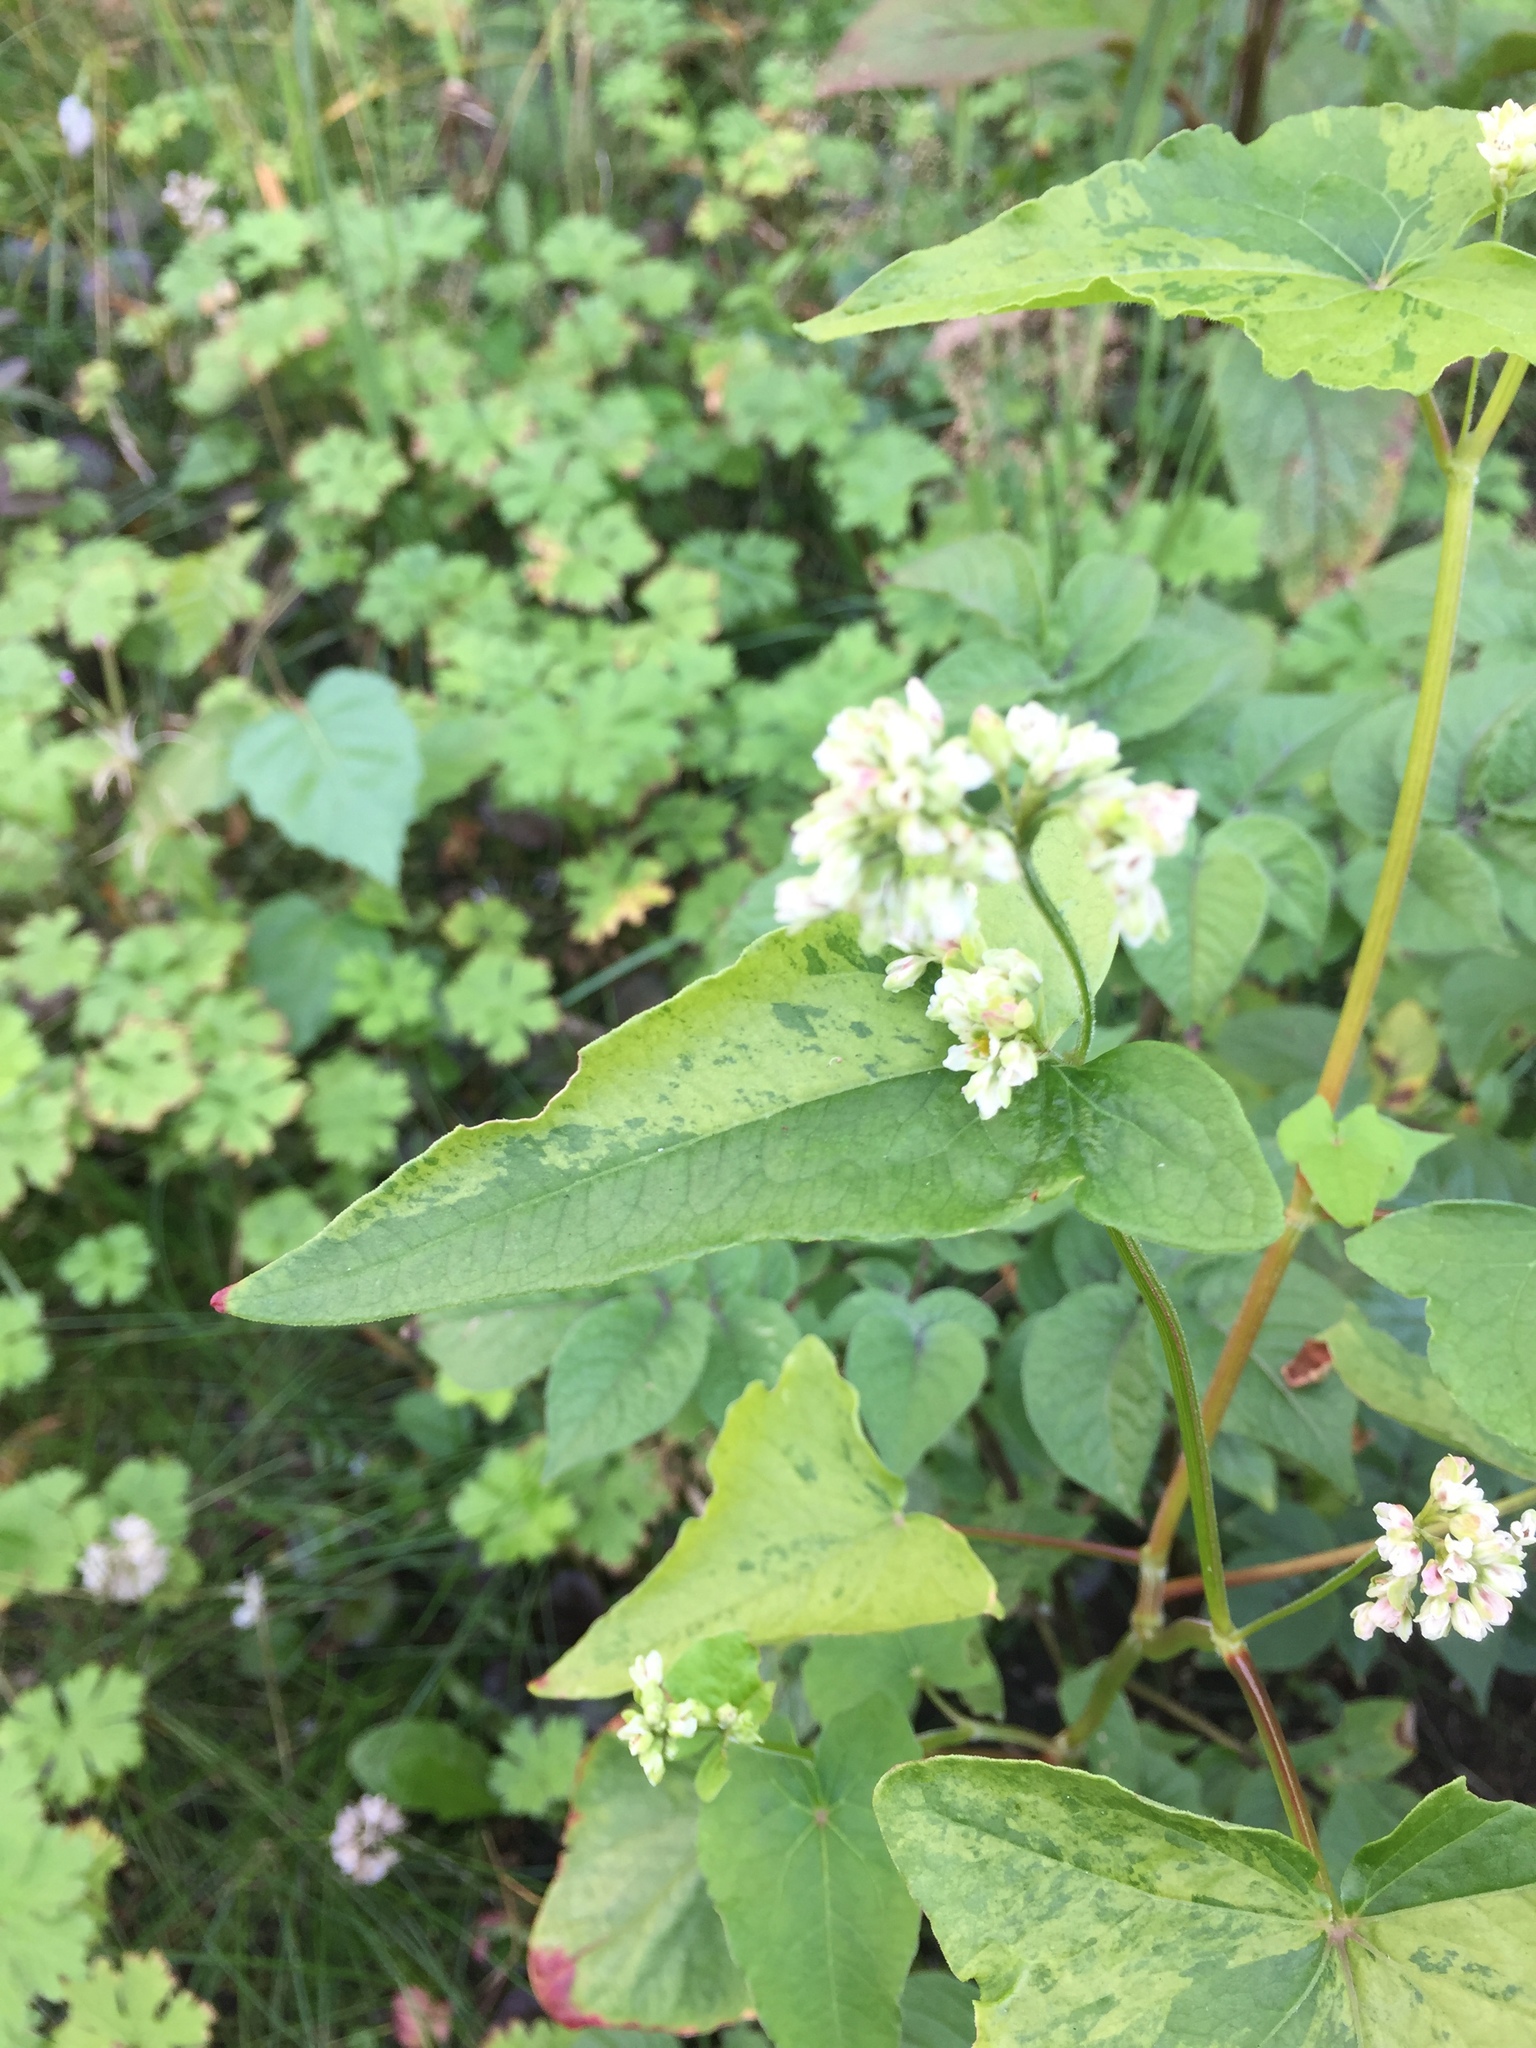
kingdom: Plantae
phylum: Tracheophyta
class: Magnoliopsida
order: Caryophyllales
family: Polygonaceae
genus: Fagopyrum
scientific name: Fagopyrum esculentum
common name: Buckwheat
